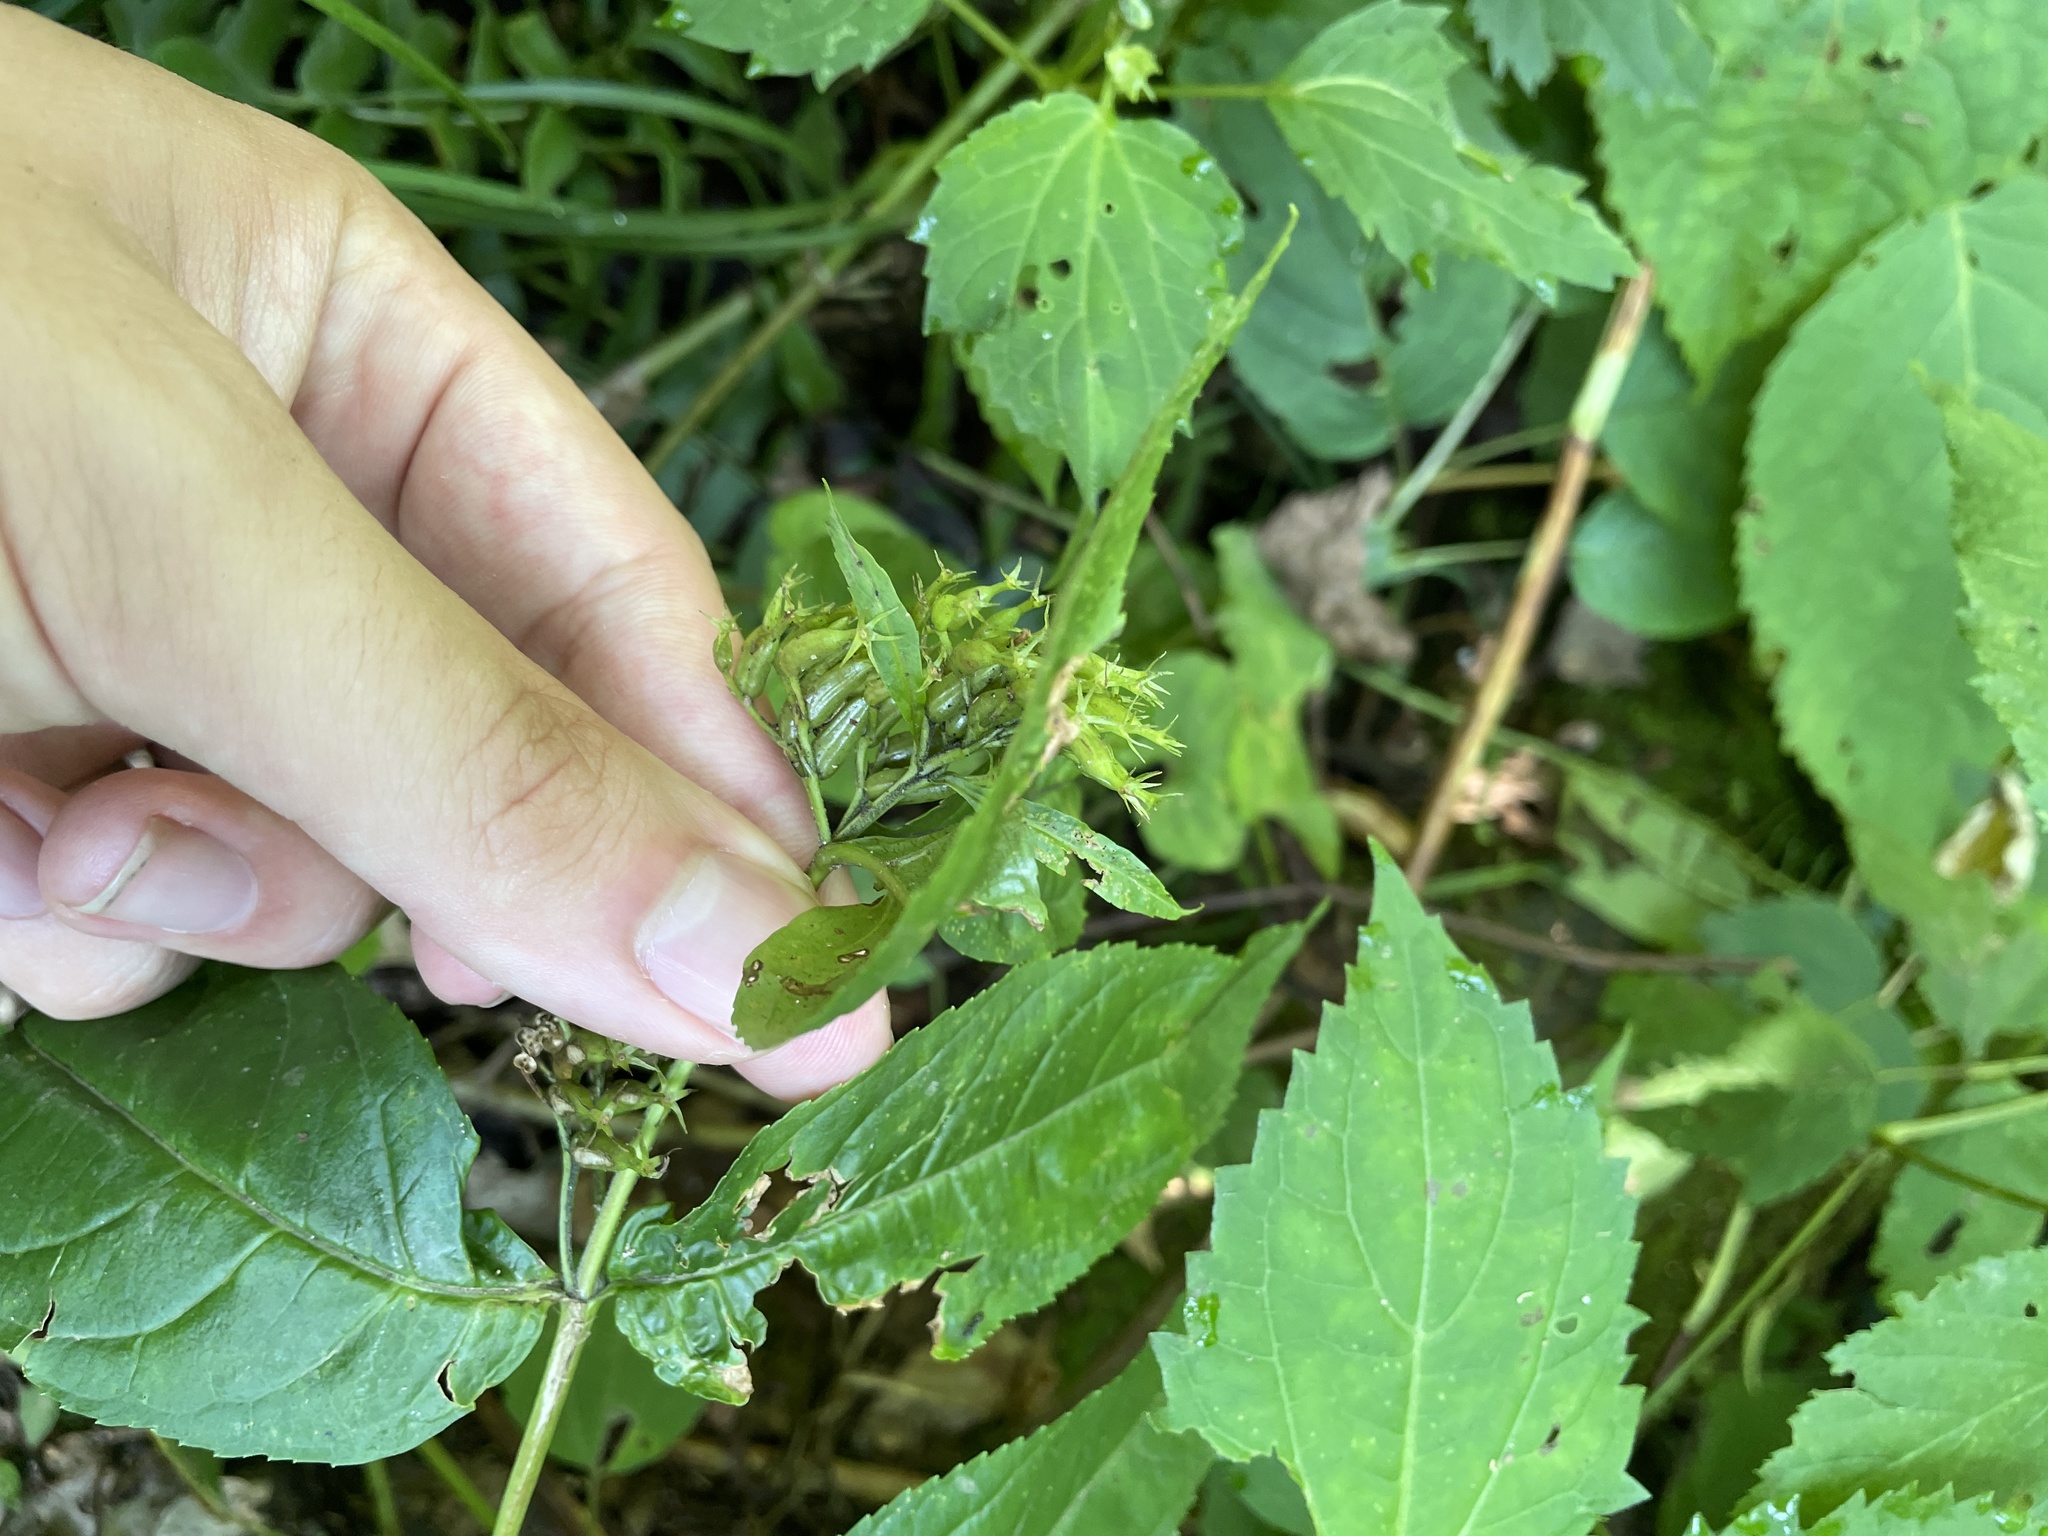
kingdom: Plantae
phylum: Tracheophyta
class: Magnoliopsida
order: Dipsacales
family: Caprifoliaceae
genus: Diervilla
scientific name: Diervilla sessilifolia
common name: Bush-honeysuckle
